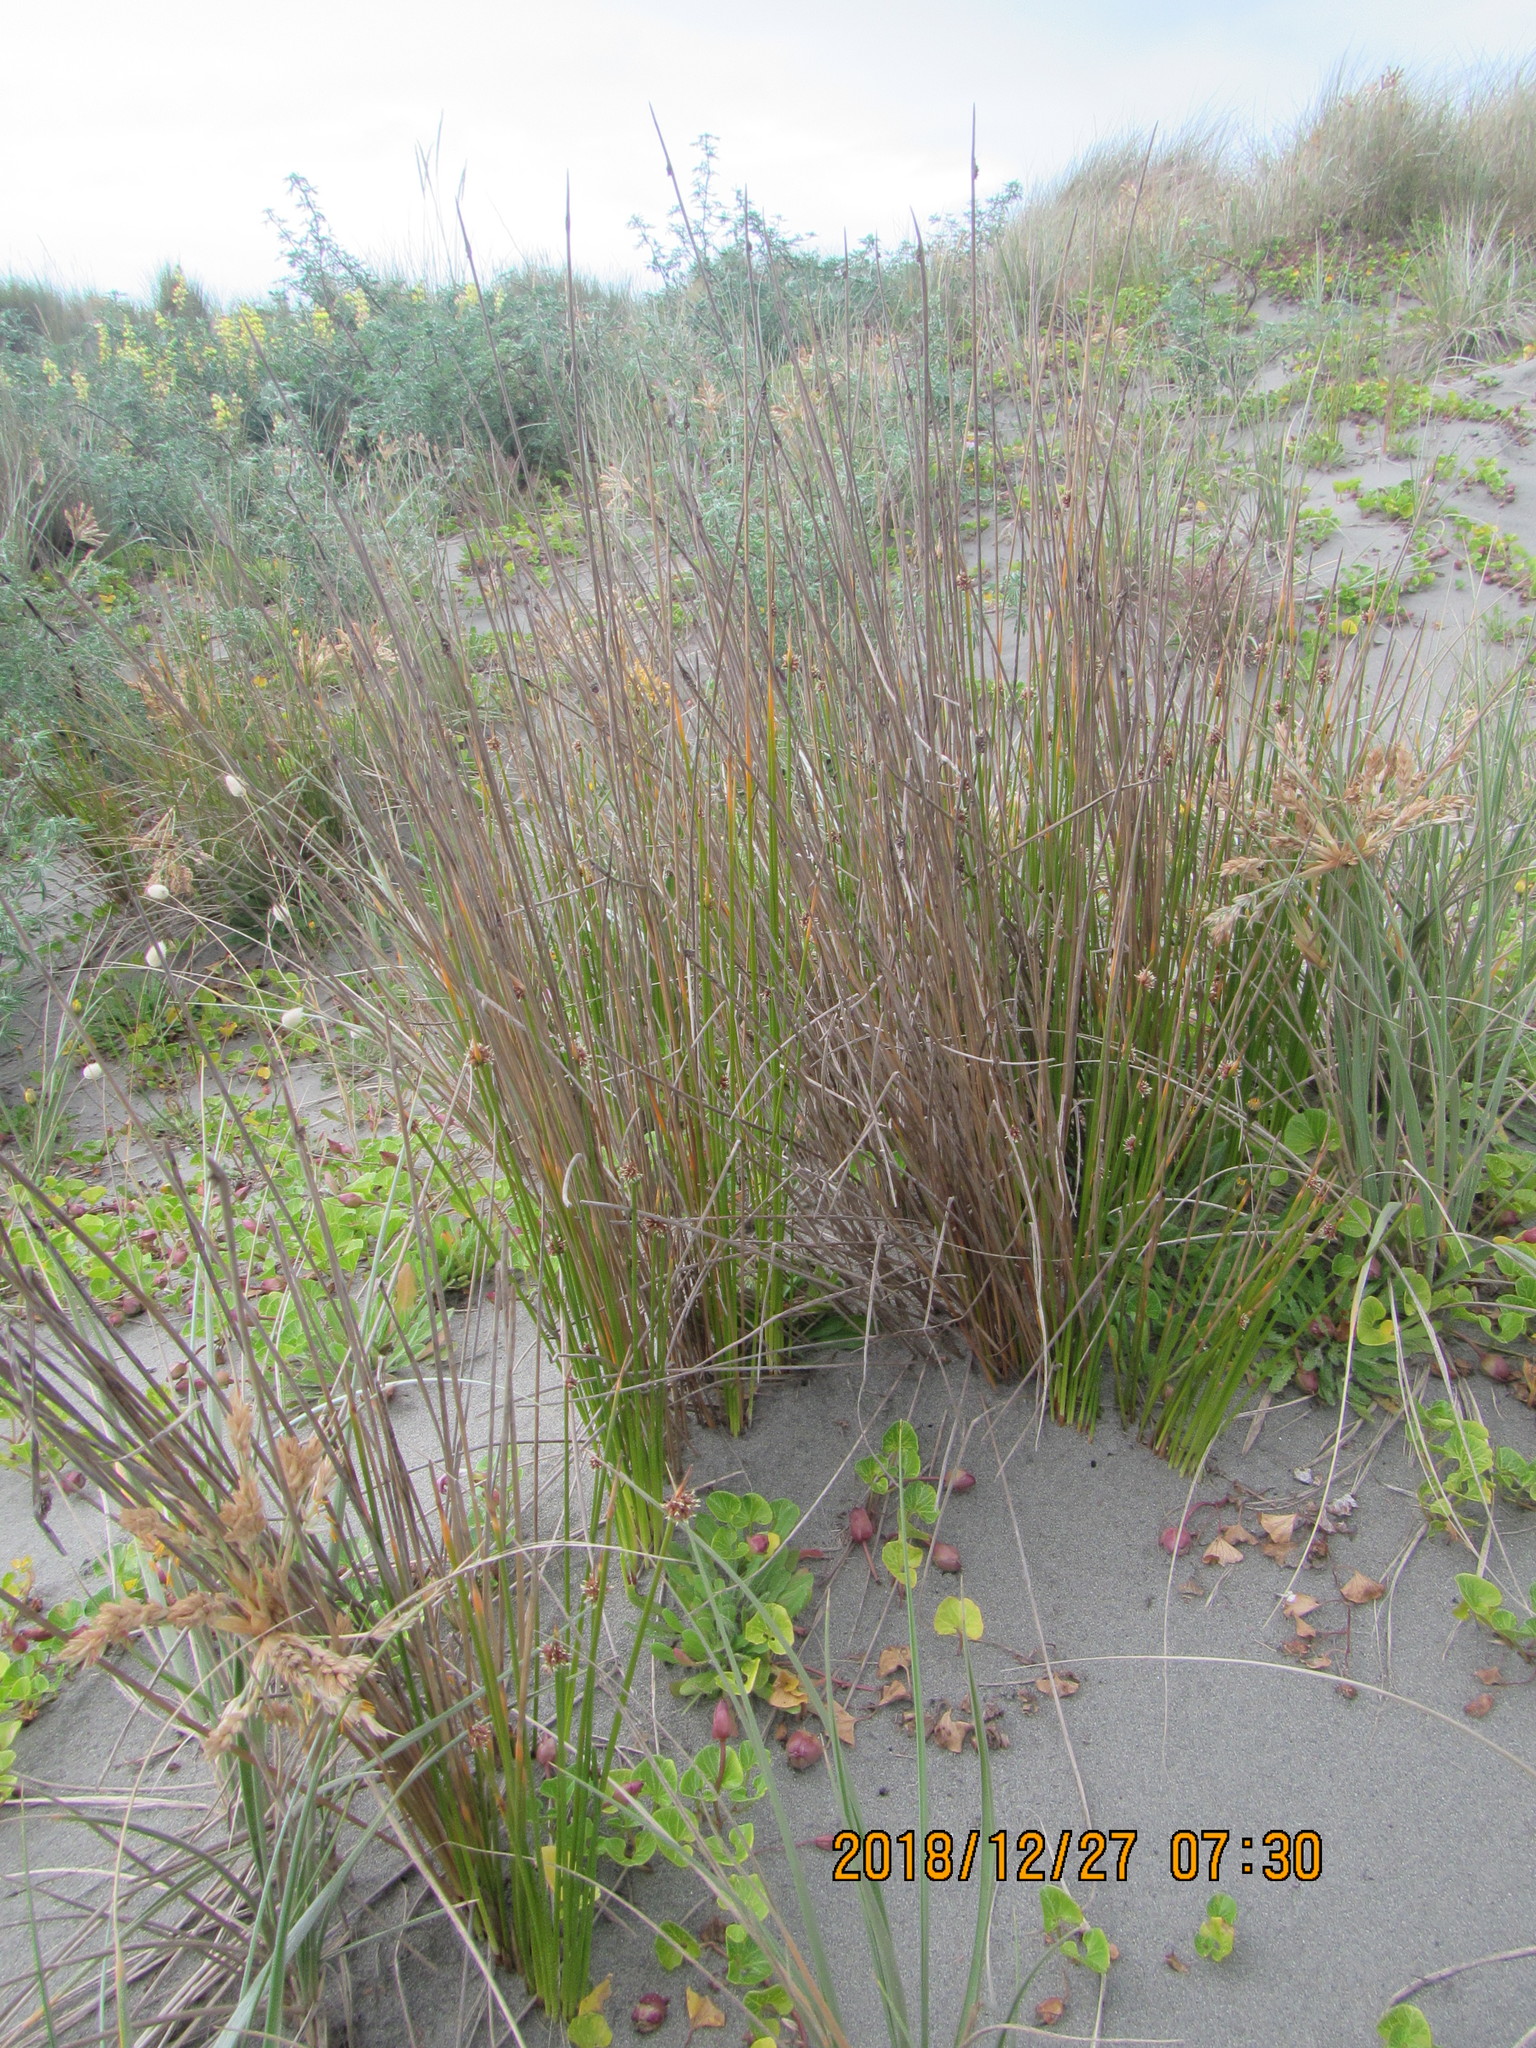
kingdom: Plantae
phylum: Tracheophyta
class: Liliopsida
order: Poales
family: Cyperaceae
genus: Ficinia
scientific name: Ficinia nodosa
